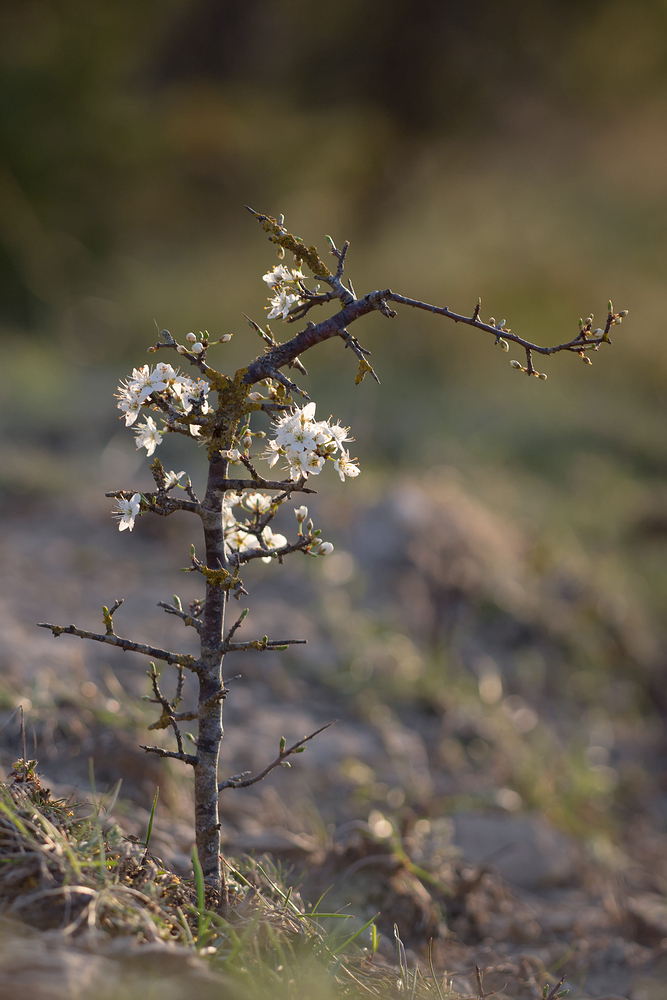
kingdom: Plantae
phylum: Tracheophyta
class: Magnoliopsida
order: Rosales
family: Rosaceae
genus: Prunus
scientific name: Prunus spinosa
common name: Blackthorn
